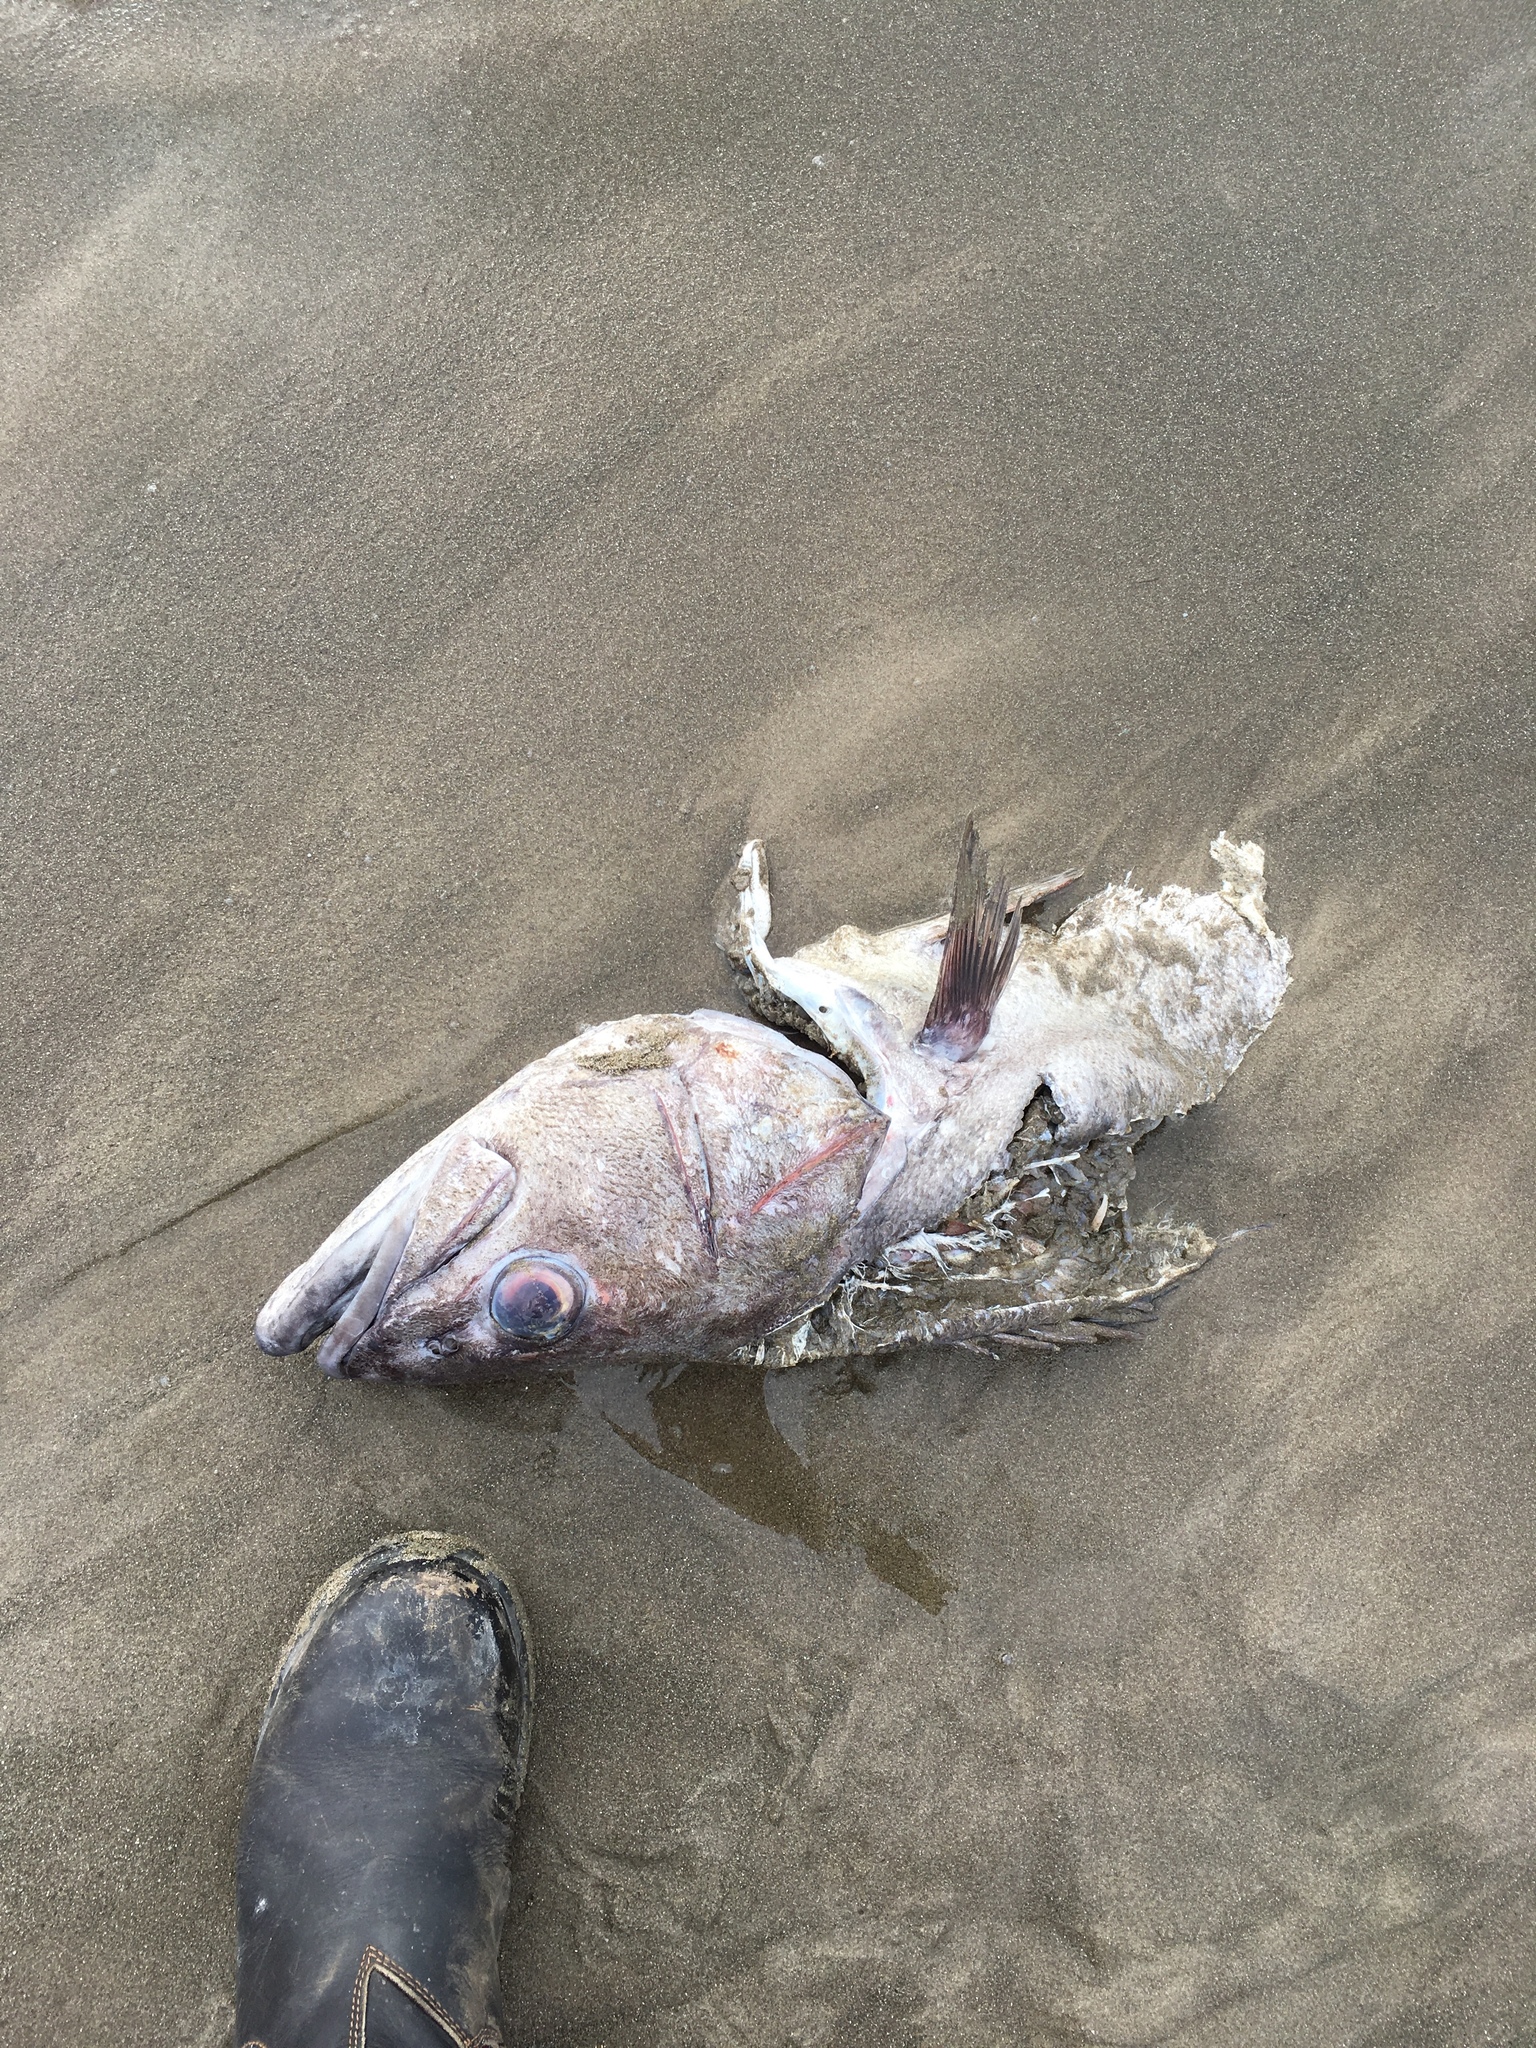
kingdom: Animalia
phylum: Chordata
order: Perciformes
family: Polyprionidae
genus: Polyprion
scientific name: Polyprion oxygeneios
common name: Hapuka
